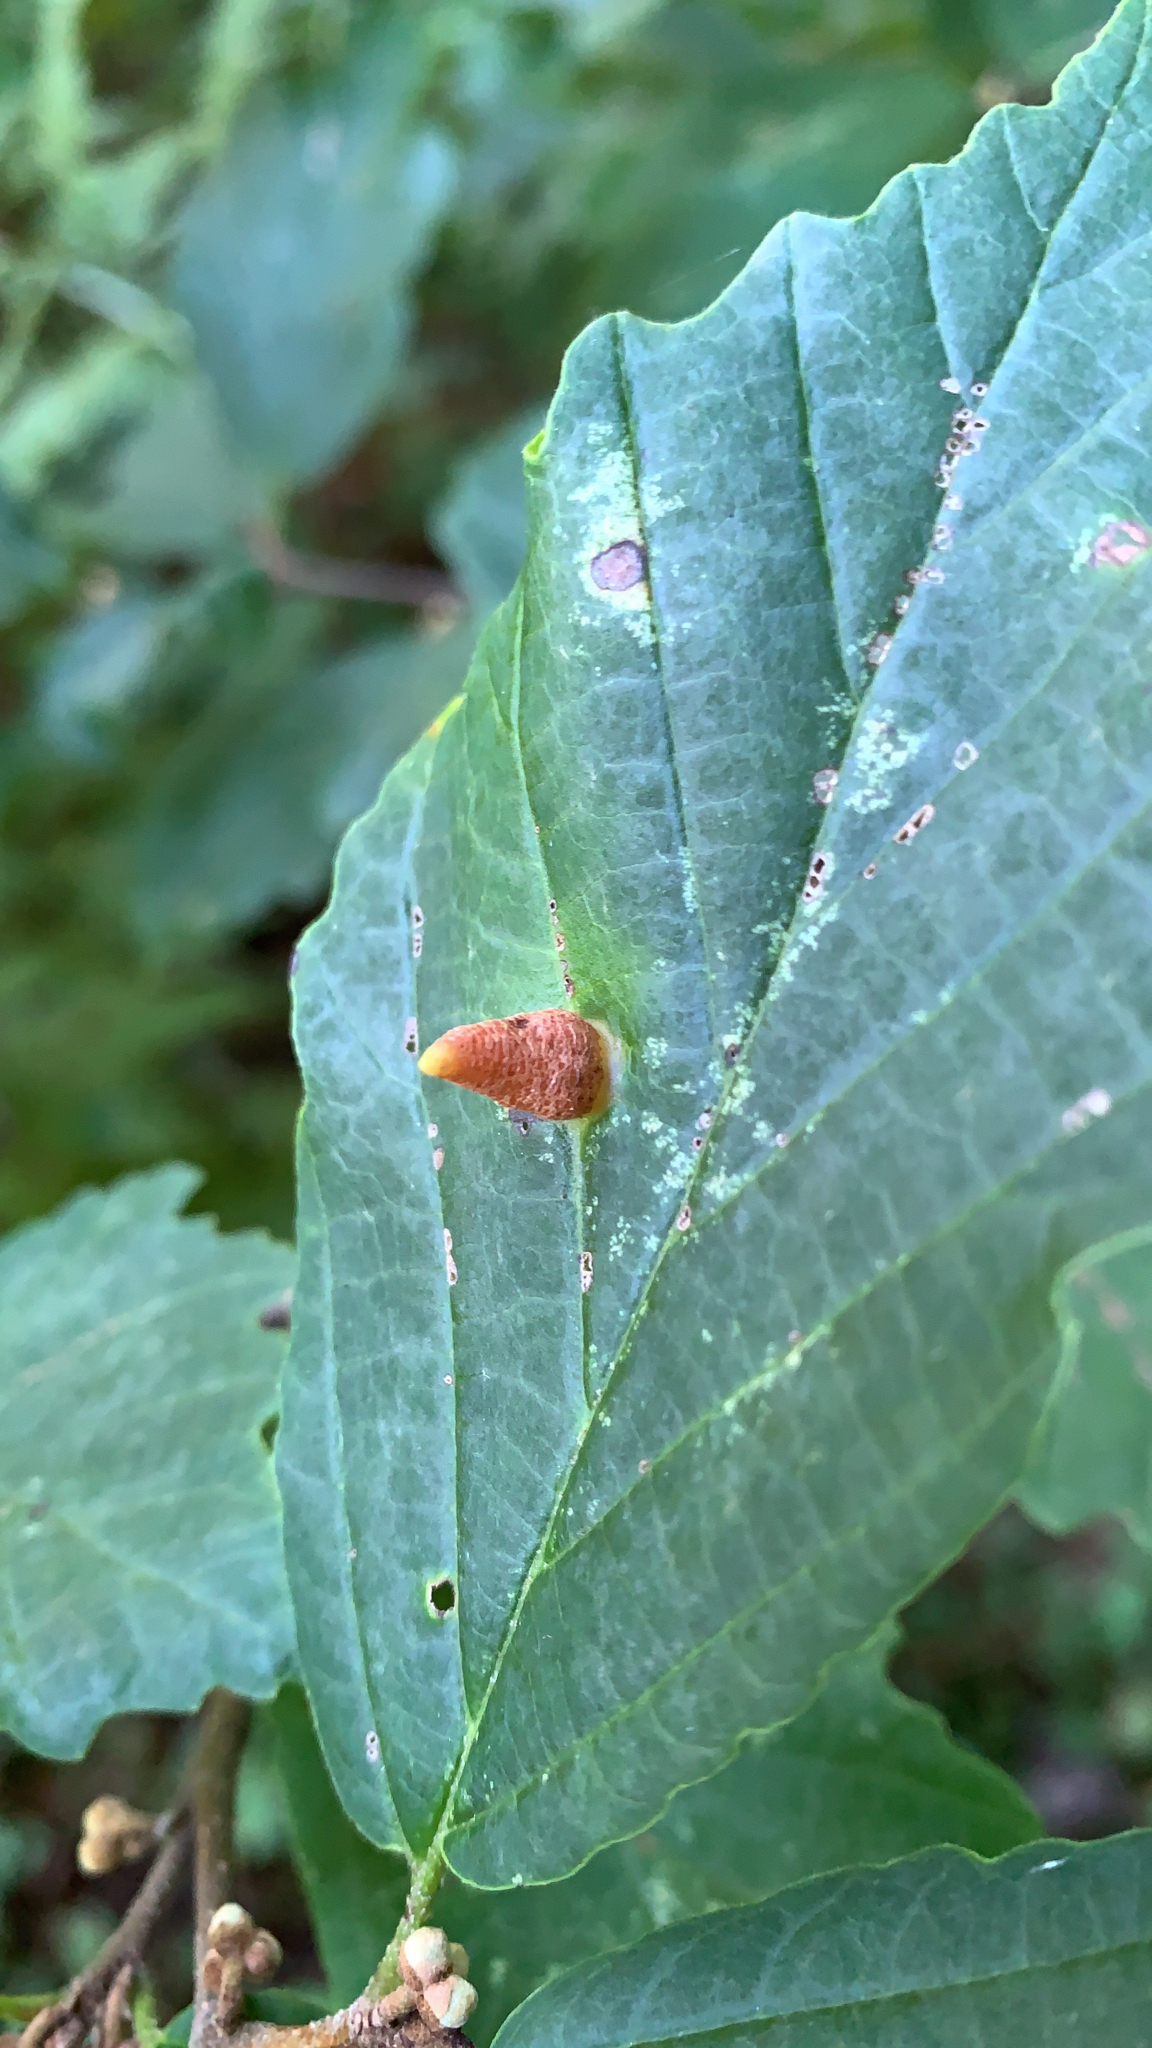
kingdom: Animalia
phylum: Arthropoda
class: Insecta
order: Hemiptera
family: Aphididae
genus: Hormaphis
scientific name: Hormaphis hamamelidis
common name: Witch-hazel cone gall aphid
